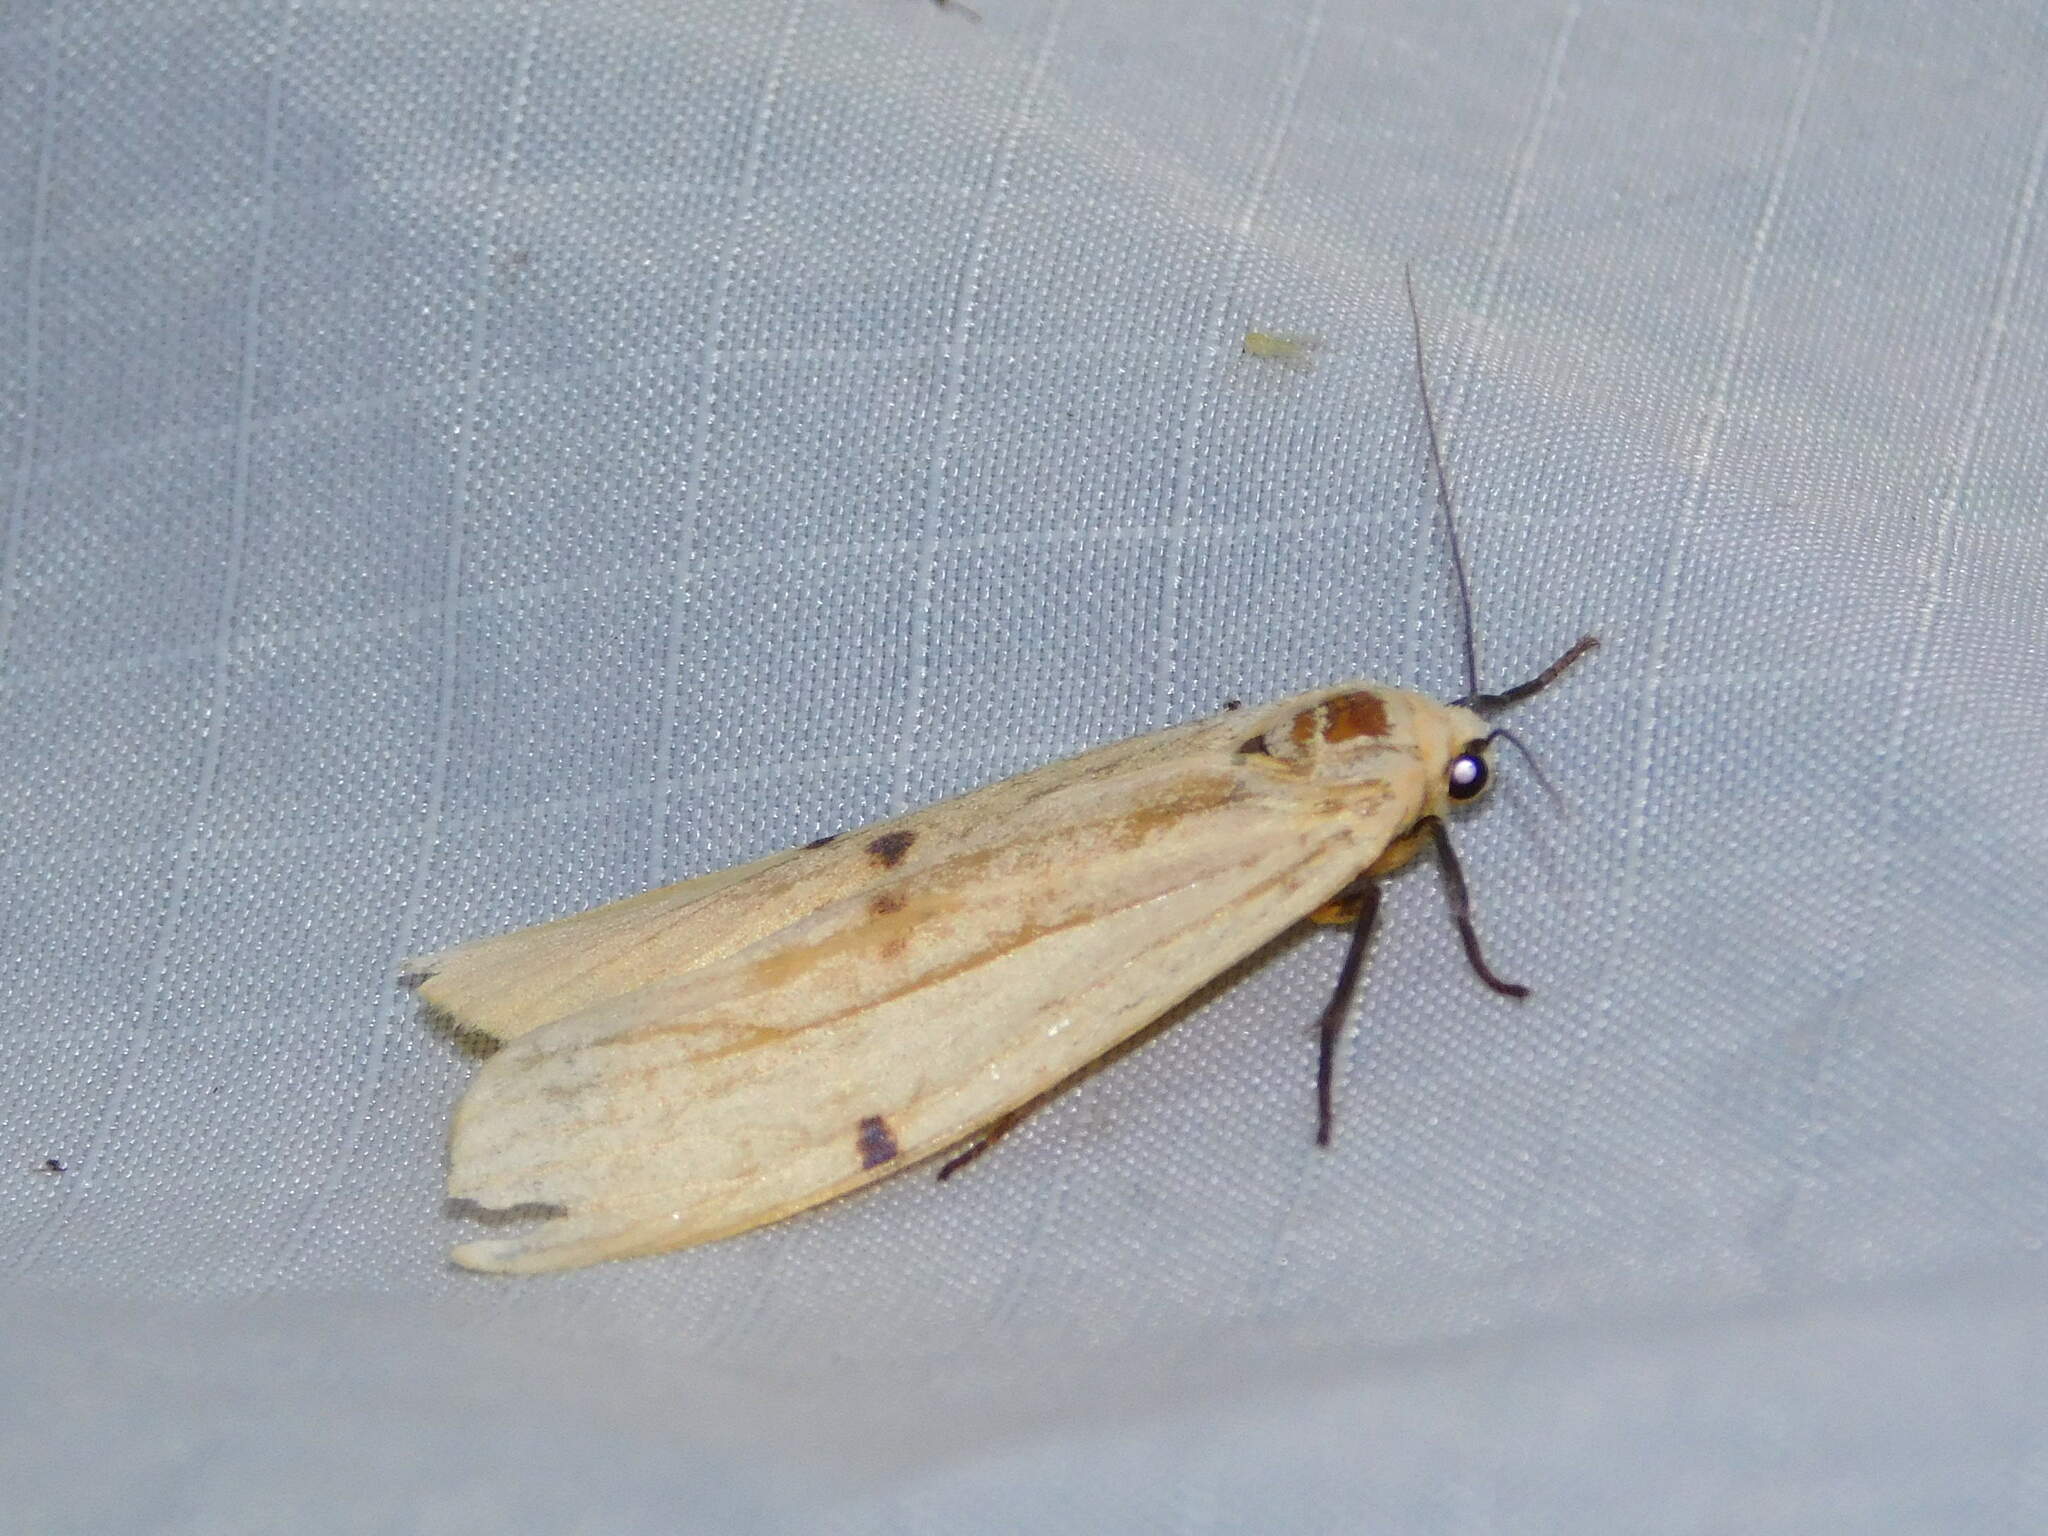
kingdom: Animalia
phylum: Arthropoda
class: Insecta
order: Lepidoptera
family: Erebidae
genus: Lithosia
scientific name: Lithosia quadra
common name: Four-spotted footman
